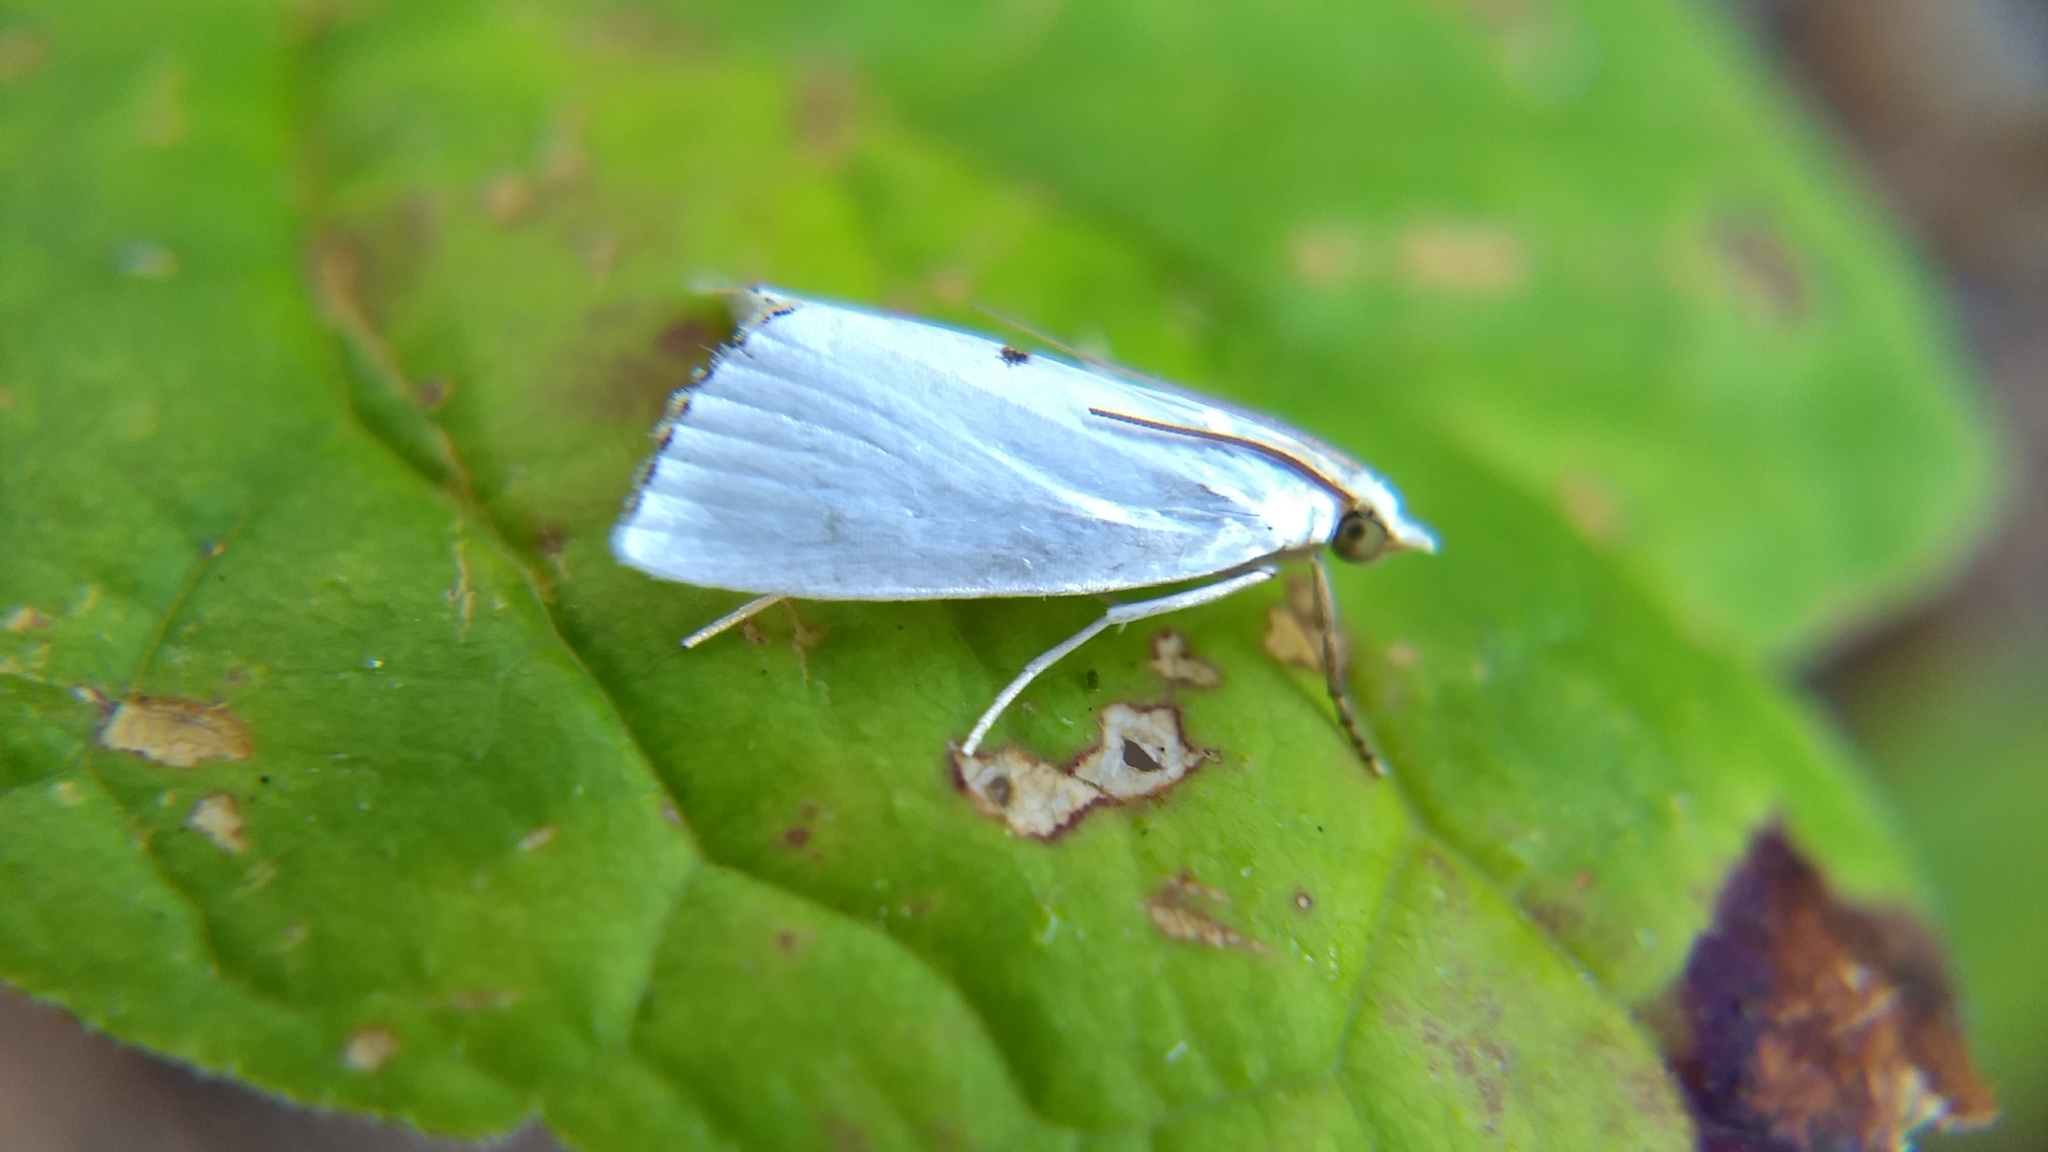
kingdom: Animalia
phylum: Arthropoda
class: Insecta
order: Lepidoptera
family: Crambidae
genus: Argyria
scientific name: Argyria nivalis
